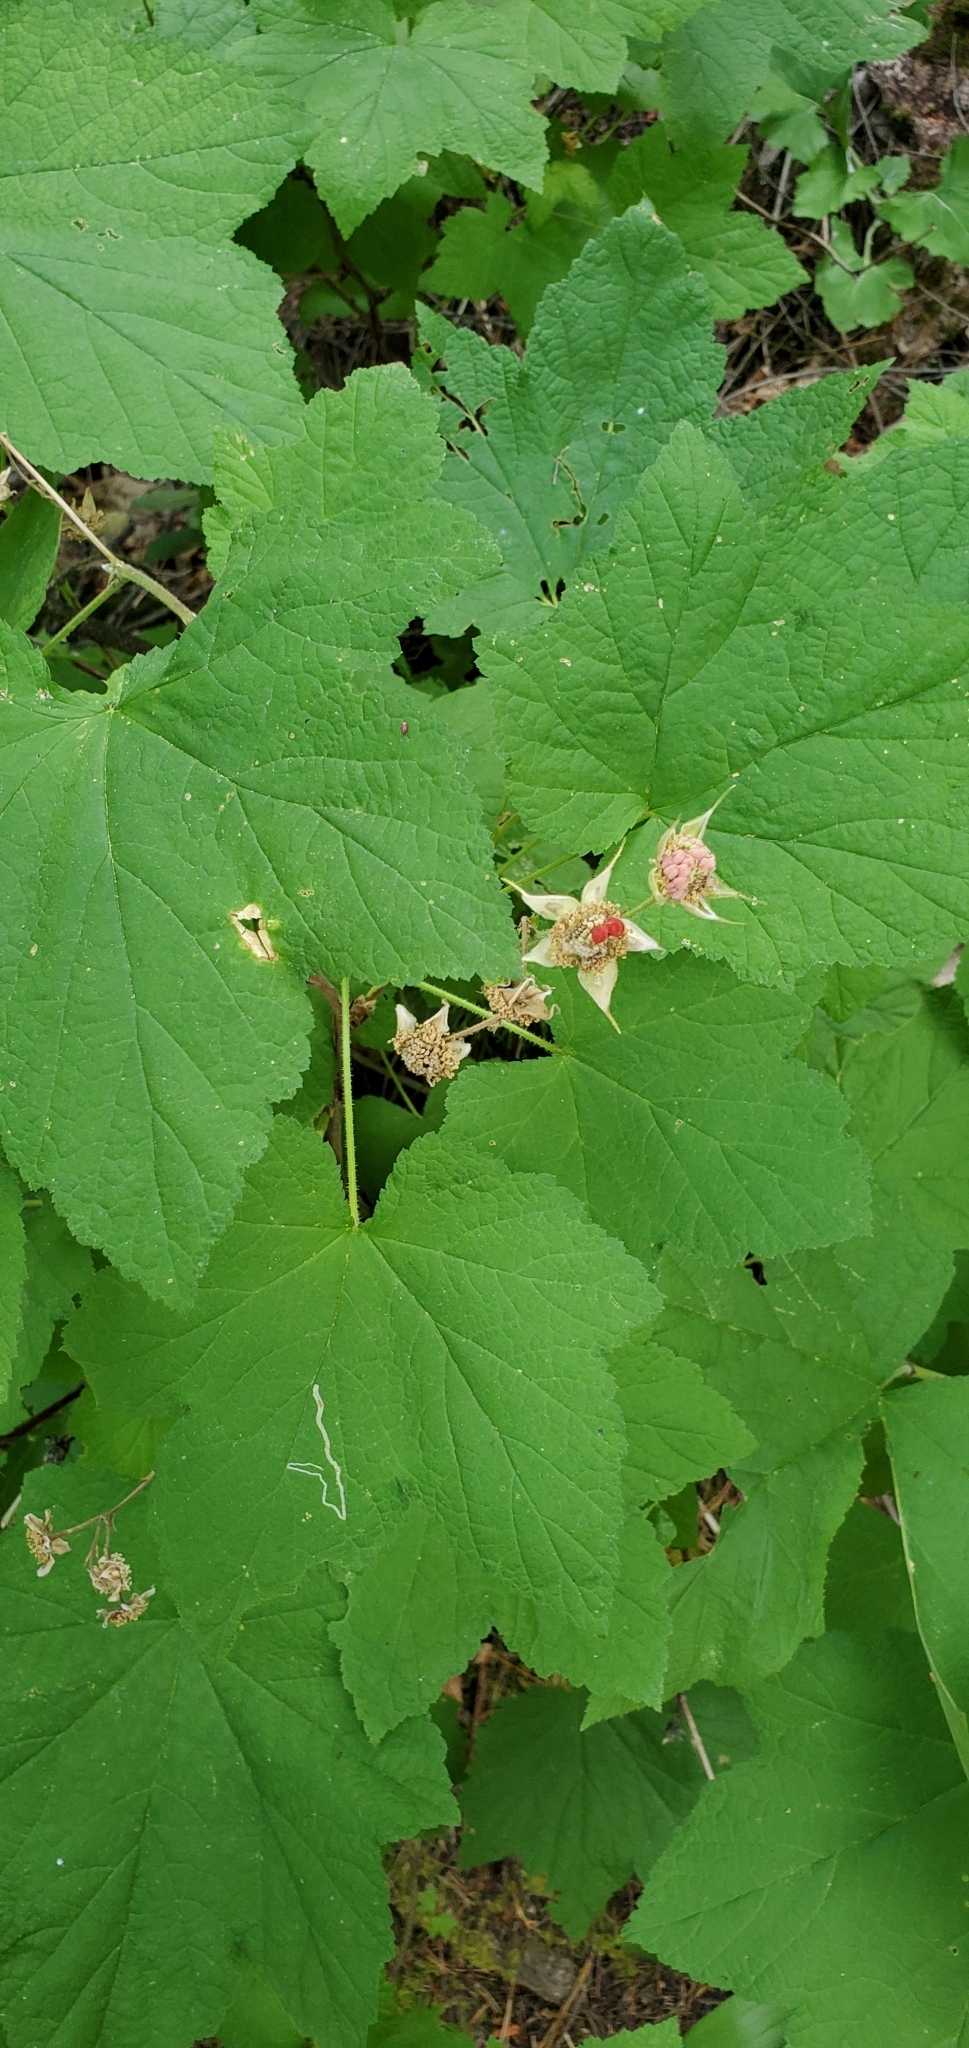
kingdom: Plantae
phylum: Tracheophyta
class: Magnoliopsida
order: Rosales
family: Rosaceae
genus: Rubus
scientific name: Rubus parviflorus
